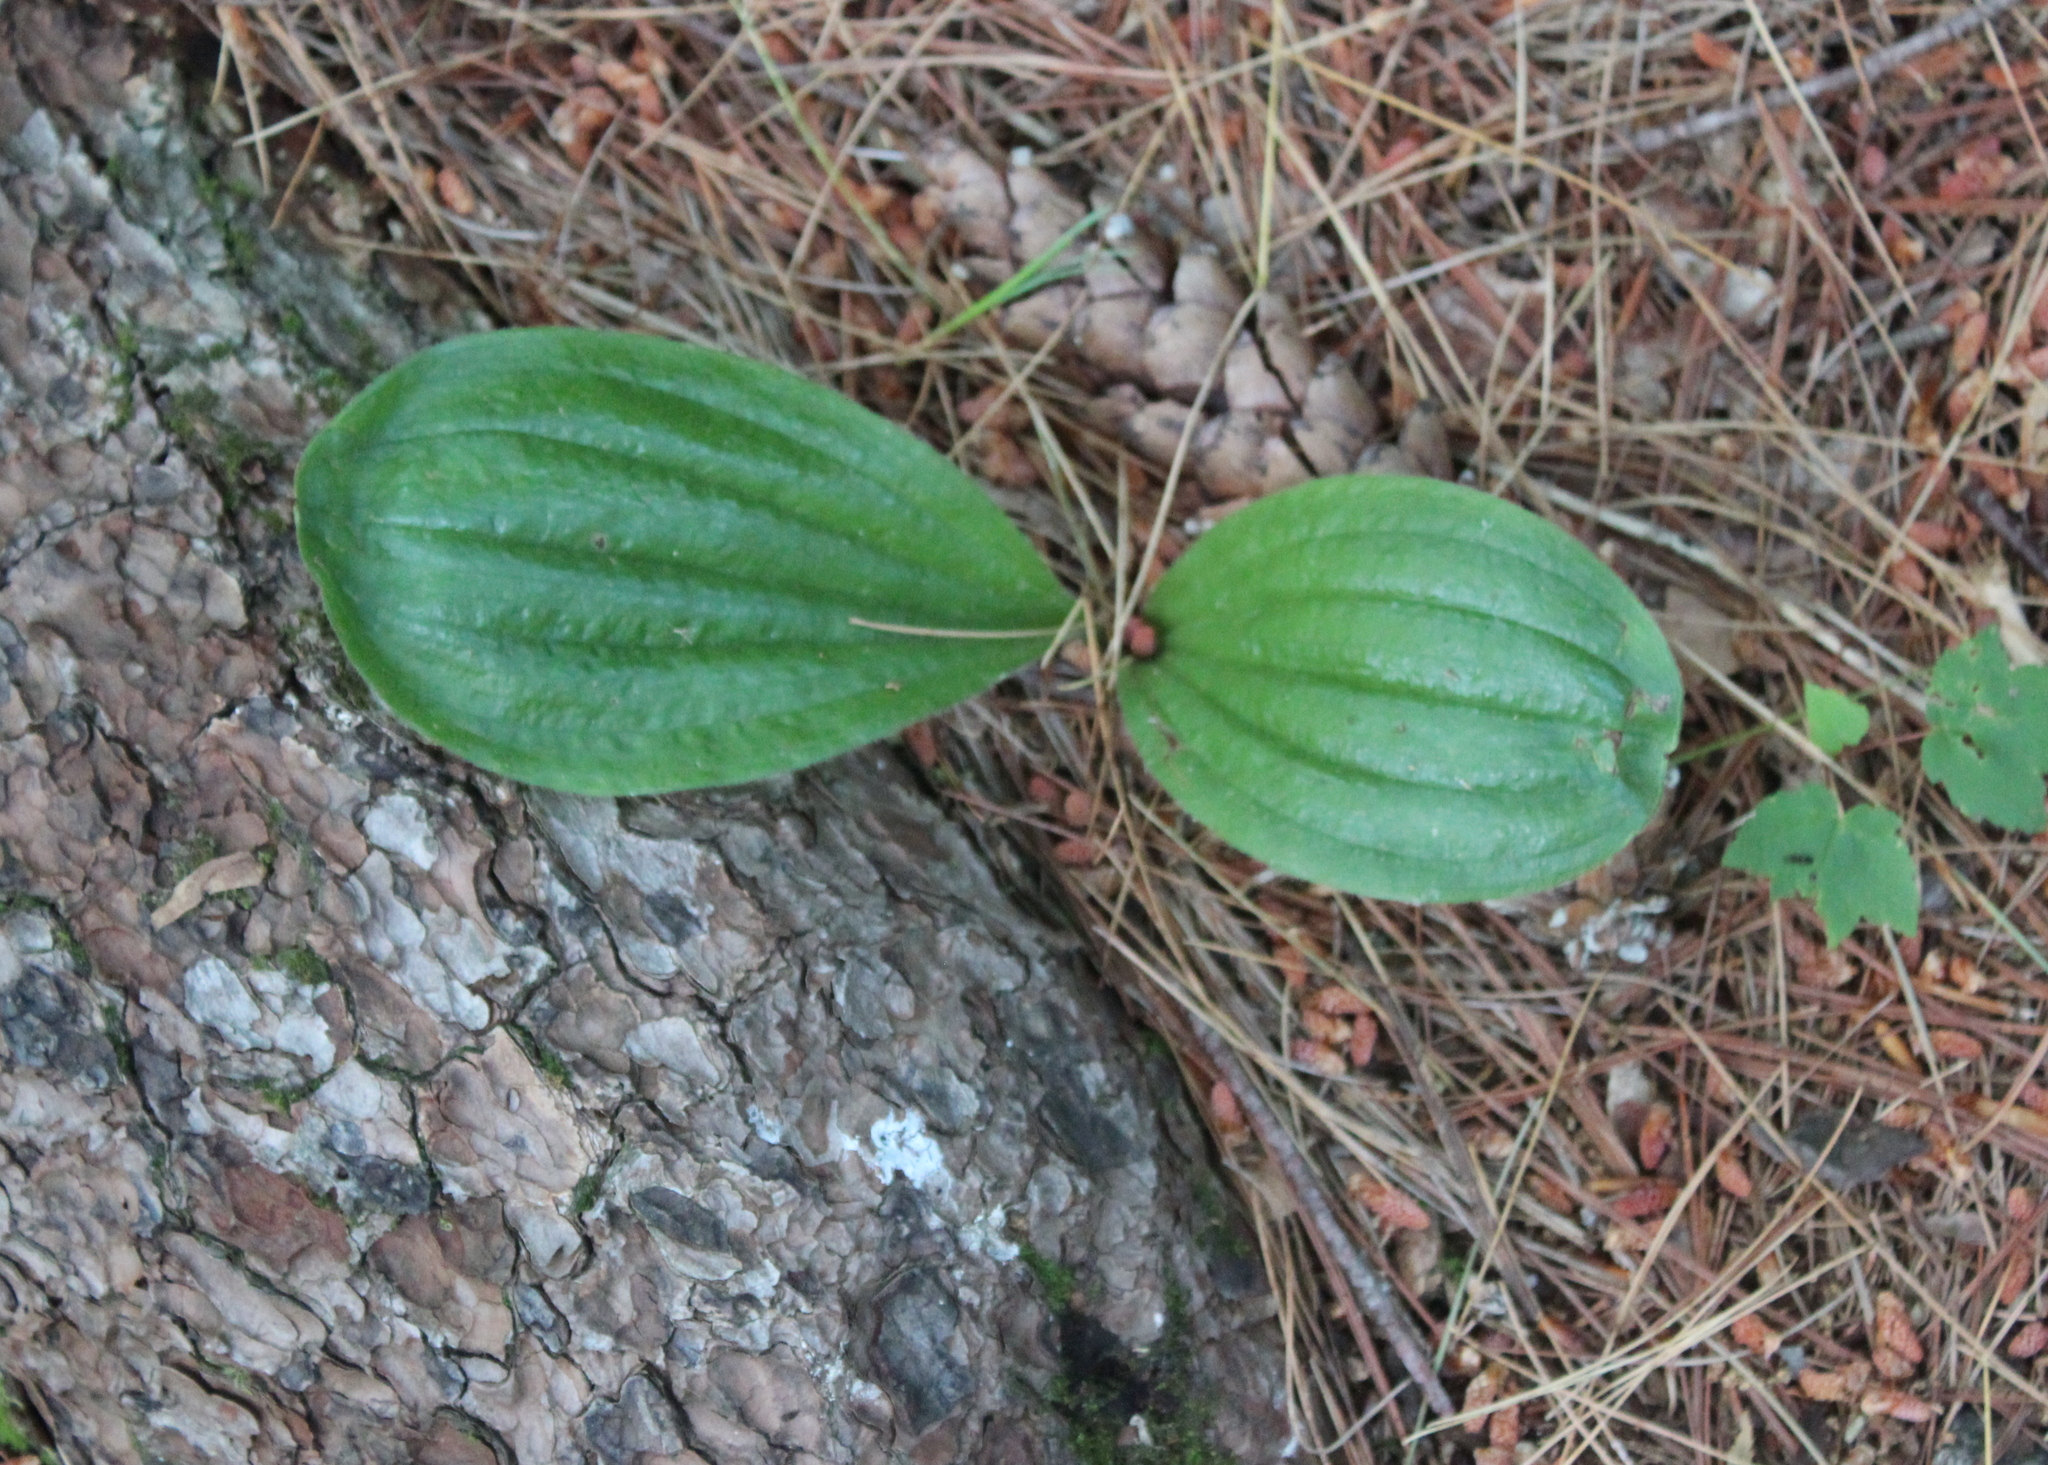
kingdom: Plantae
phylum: Tracheophyta
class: Liliopsida
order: Asparagales
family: Orchidaceae
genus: Cypripedium
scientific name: Cypripedium acaule
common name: Pink lady's-slipper
